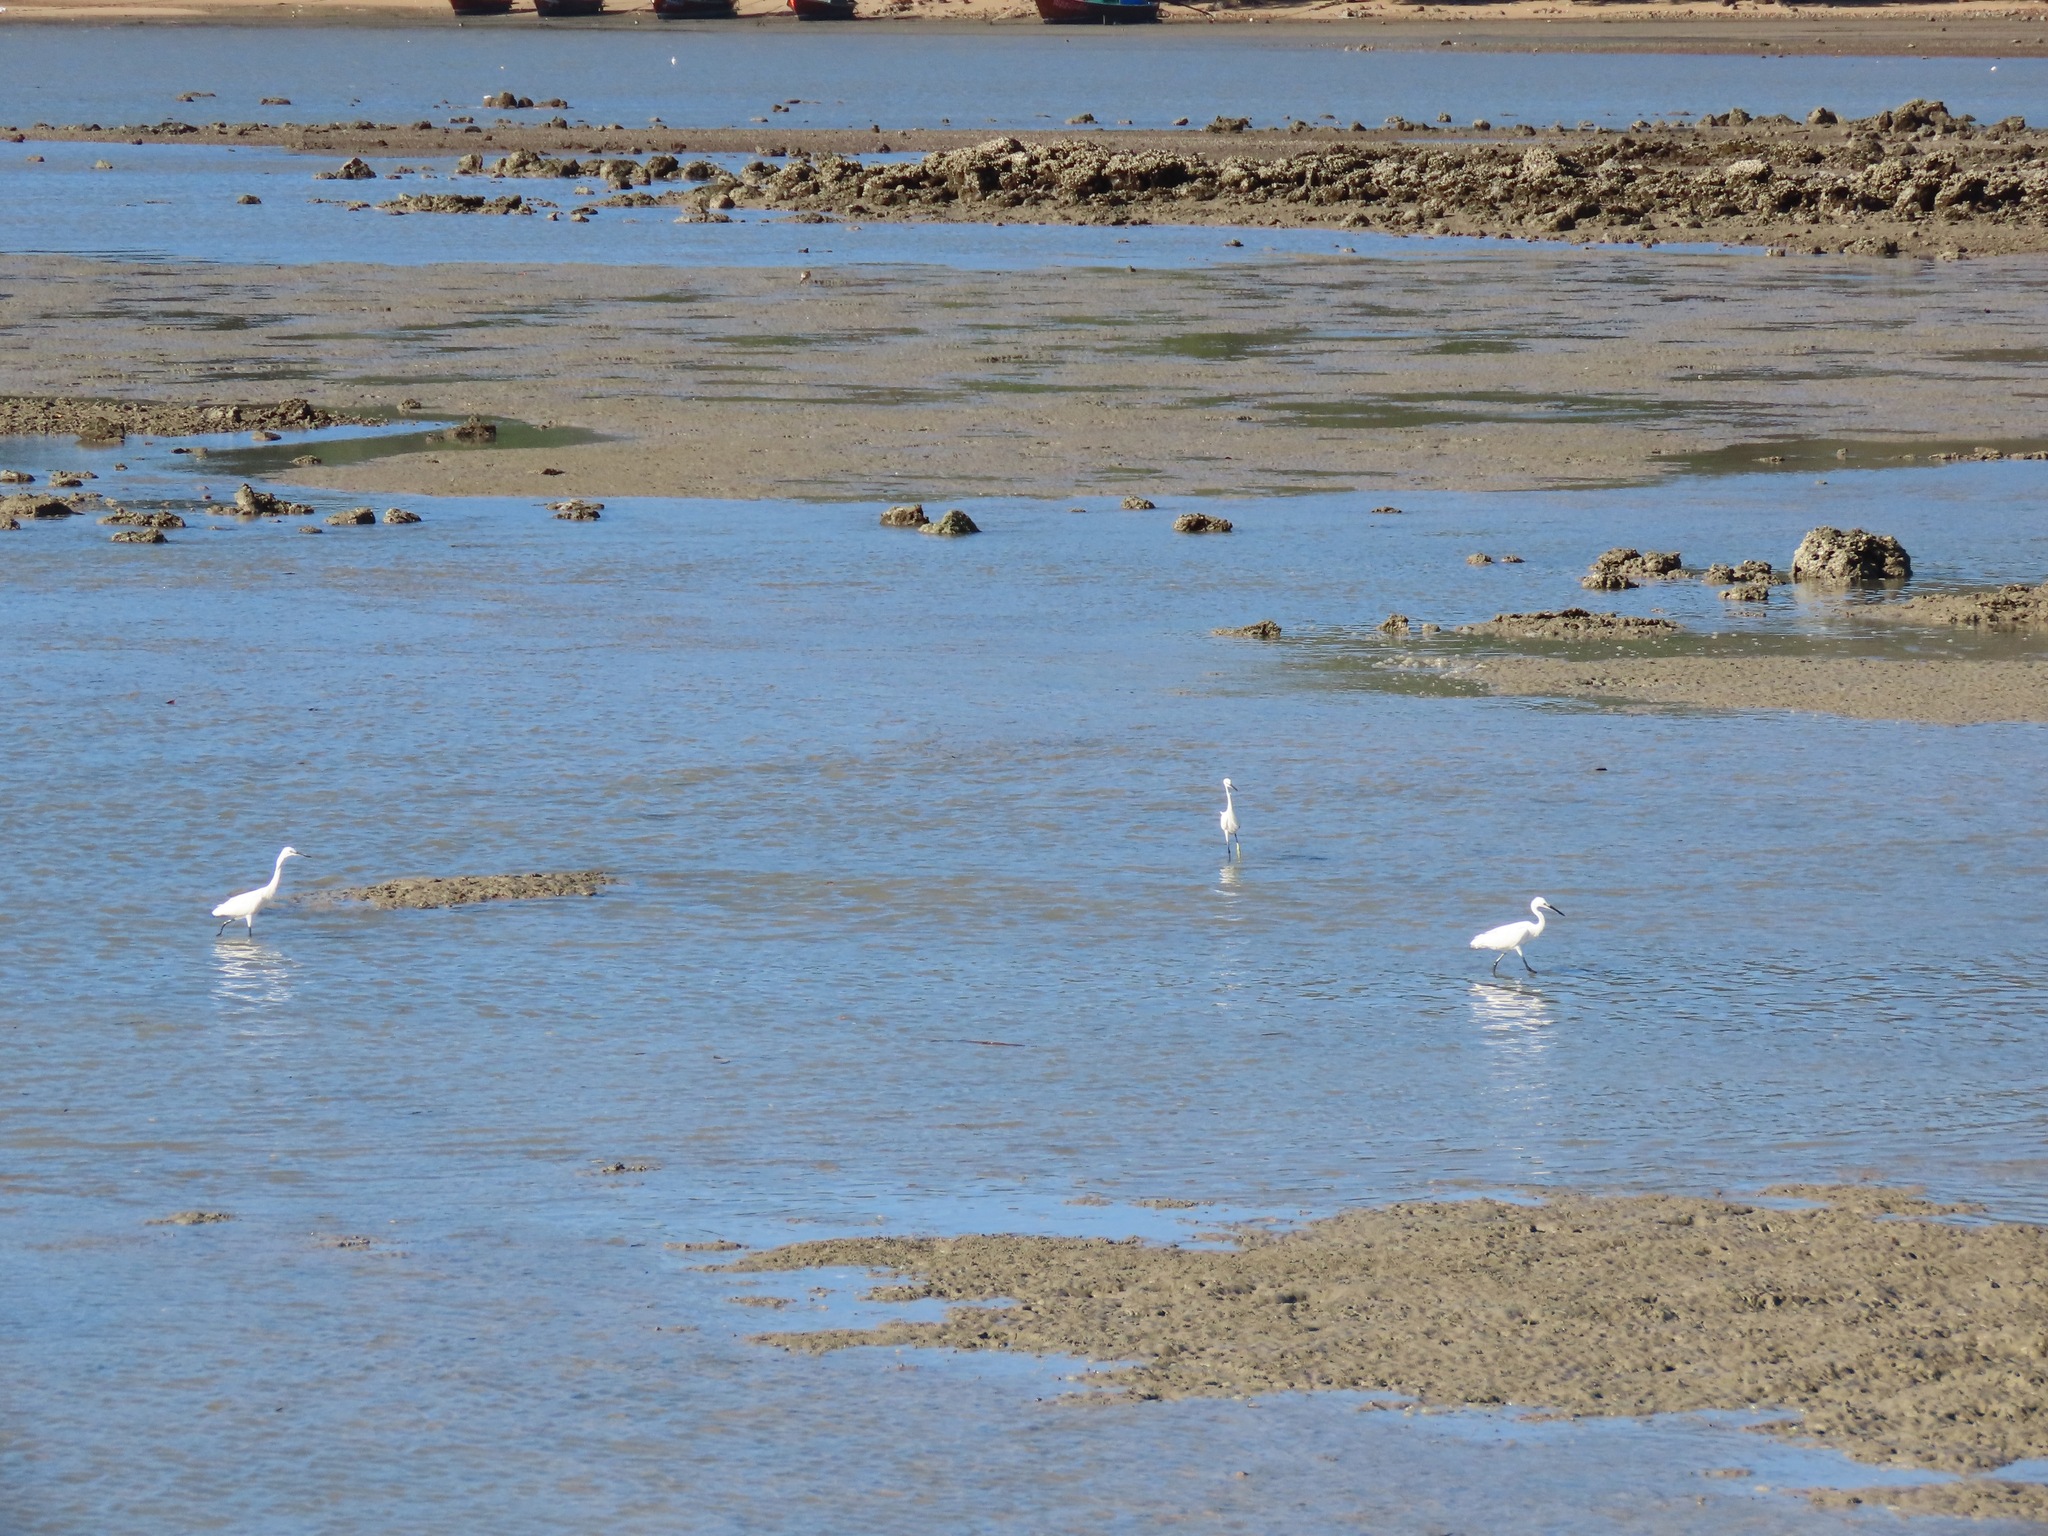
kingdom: Animalia
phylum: Chordata
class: Aves
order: Pelecaniformes
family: Ardeidae
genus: Egretta
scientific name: Egretta garzetta
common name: Little egret
